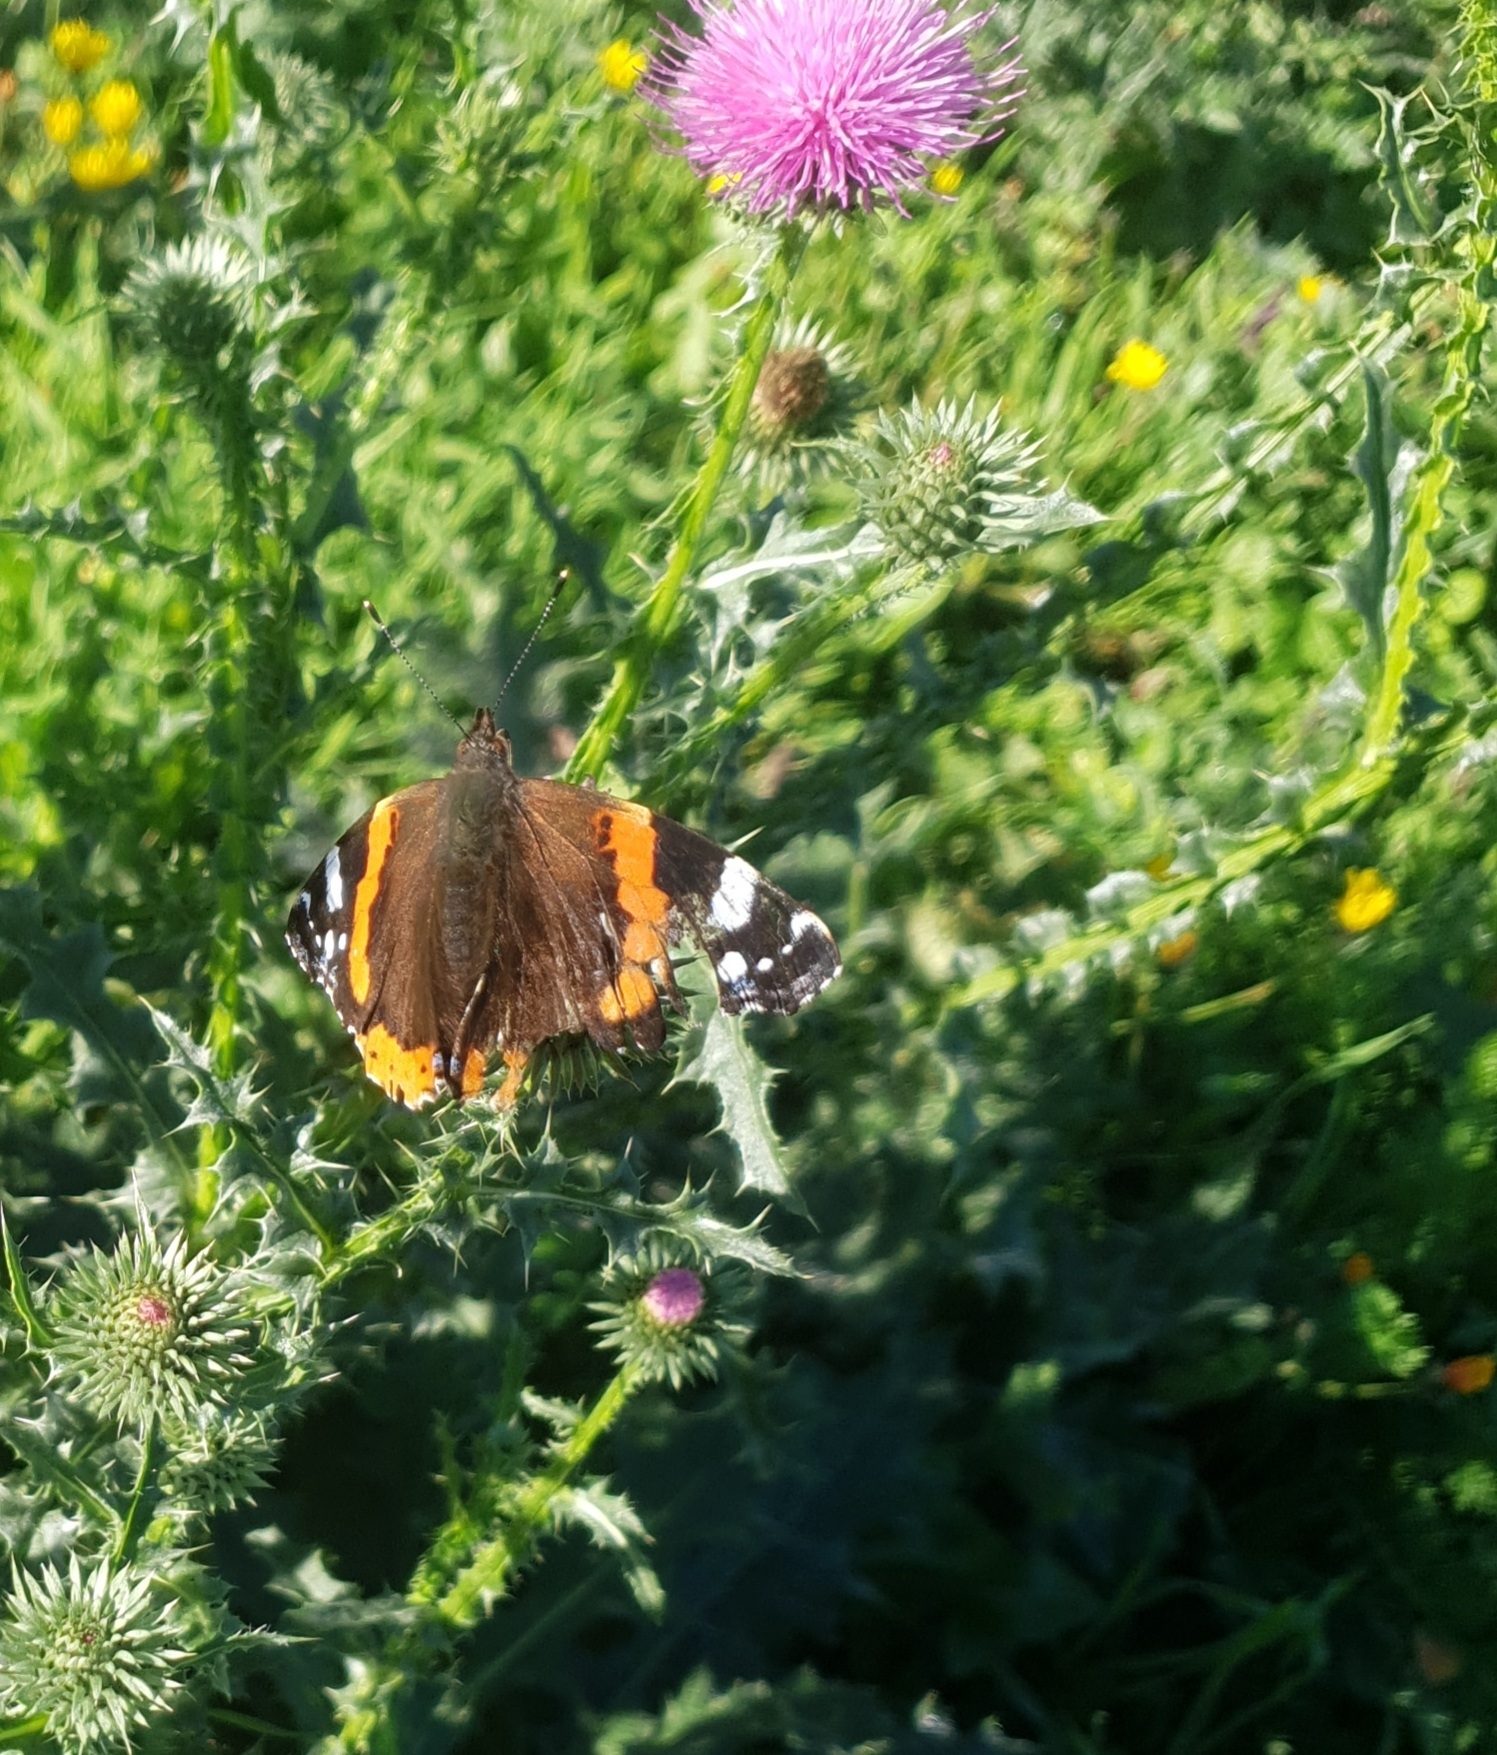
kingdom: Animalia
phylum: Arthropoda
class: Insecta
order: Lepidoptera
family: Nymphalidae
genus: Vanessa
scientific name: Vanessa atalanta
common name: Red admiral
